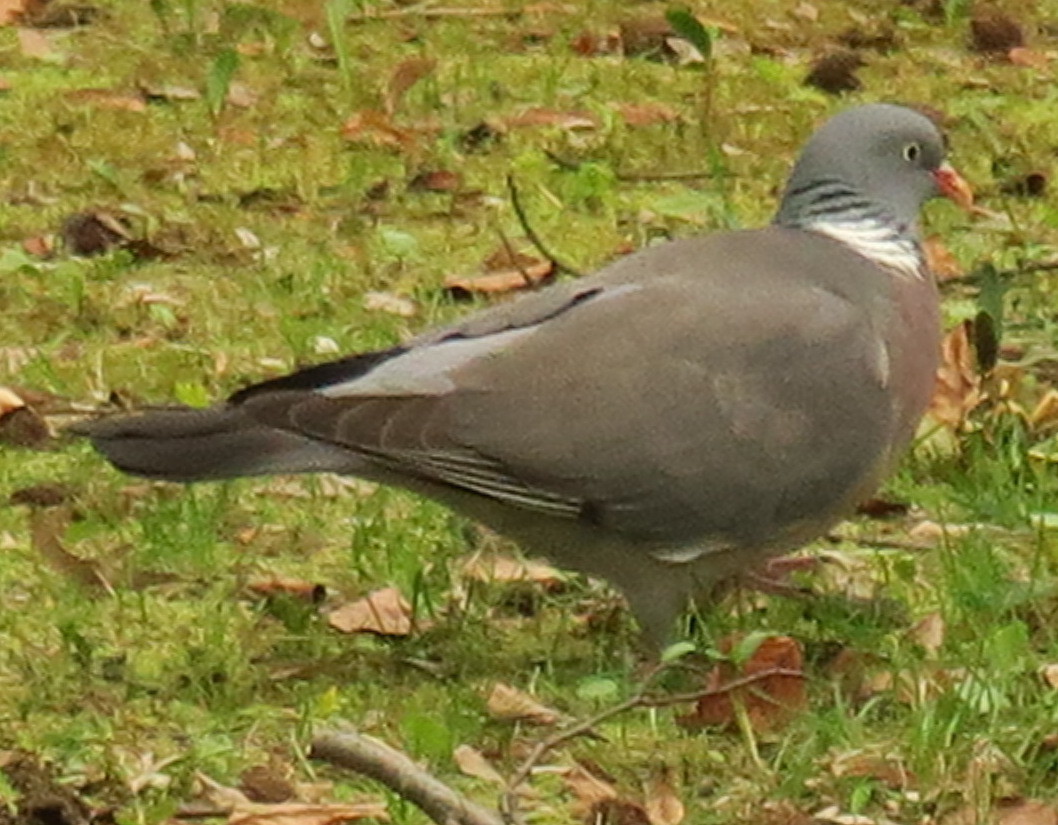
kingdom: Animalia
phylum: Chordata
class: Aves
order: Columbiformes
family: Columbidae
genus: Columba
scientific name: Columba palumbus
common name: Common wood pigeon
